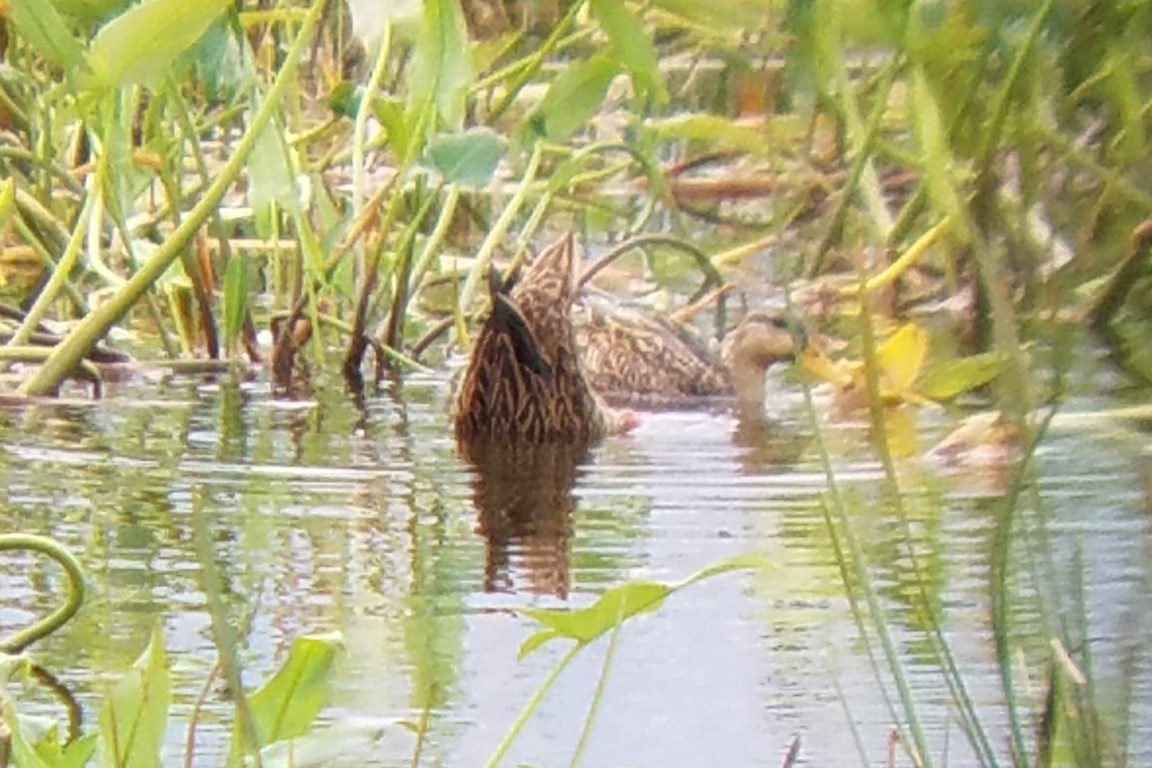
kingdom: Animalia
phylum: Chordata
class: Aves
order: Anseriformes
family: Anatidae
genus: Anas
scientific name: Anas fulvigula
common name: Mottled duck
